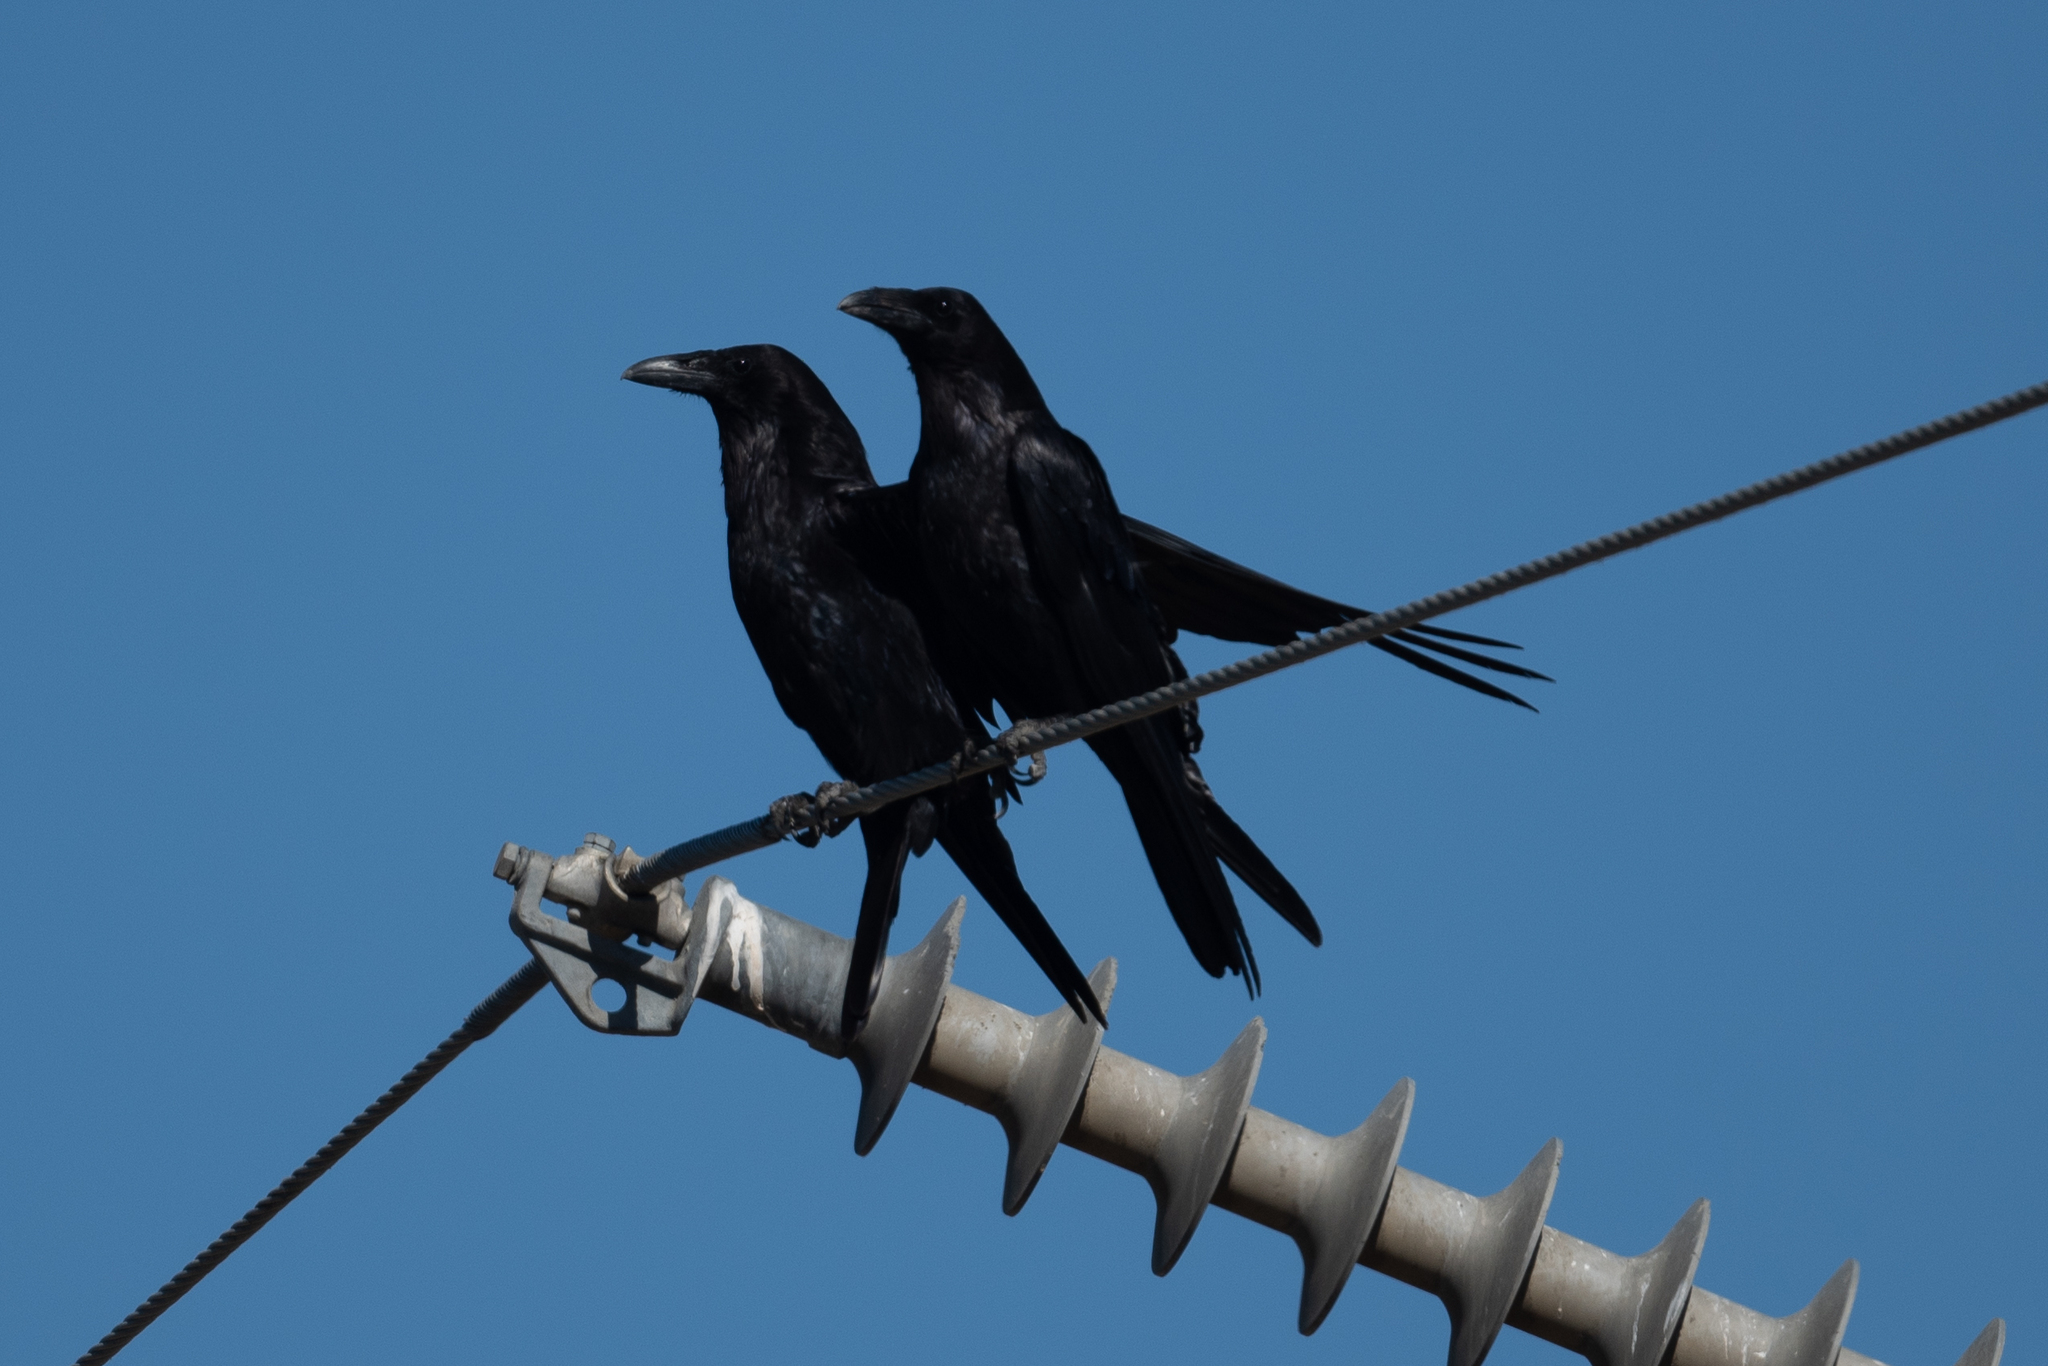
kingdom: Animalia
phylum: Chordata
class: Aves
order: Passeriformes
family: Corvidae
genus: Corvus
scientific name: Corvus corax
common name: Common raven
